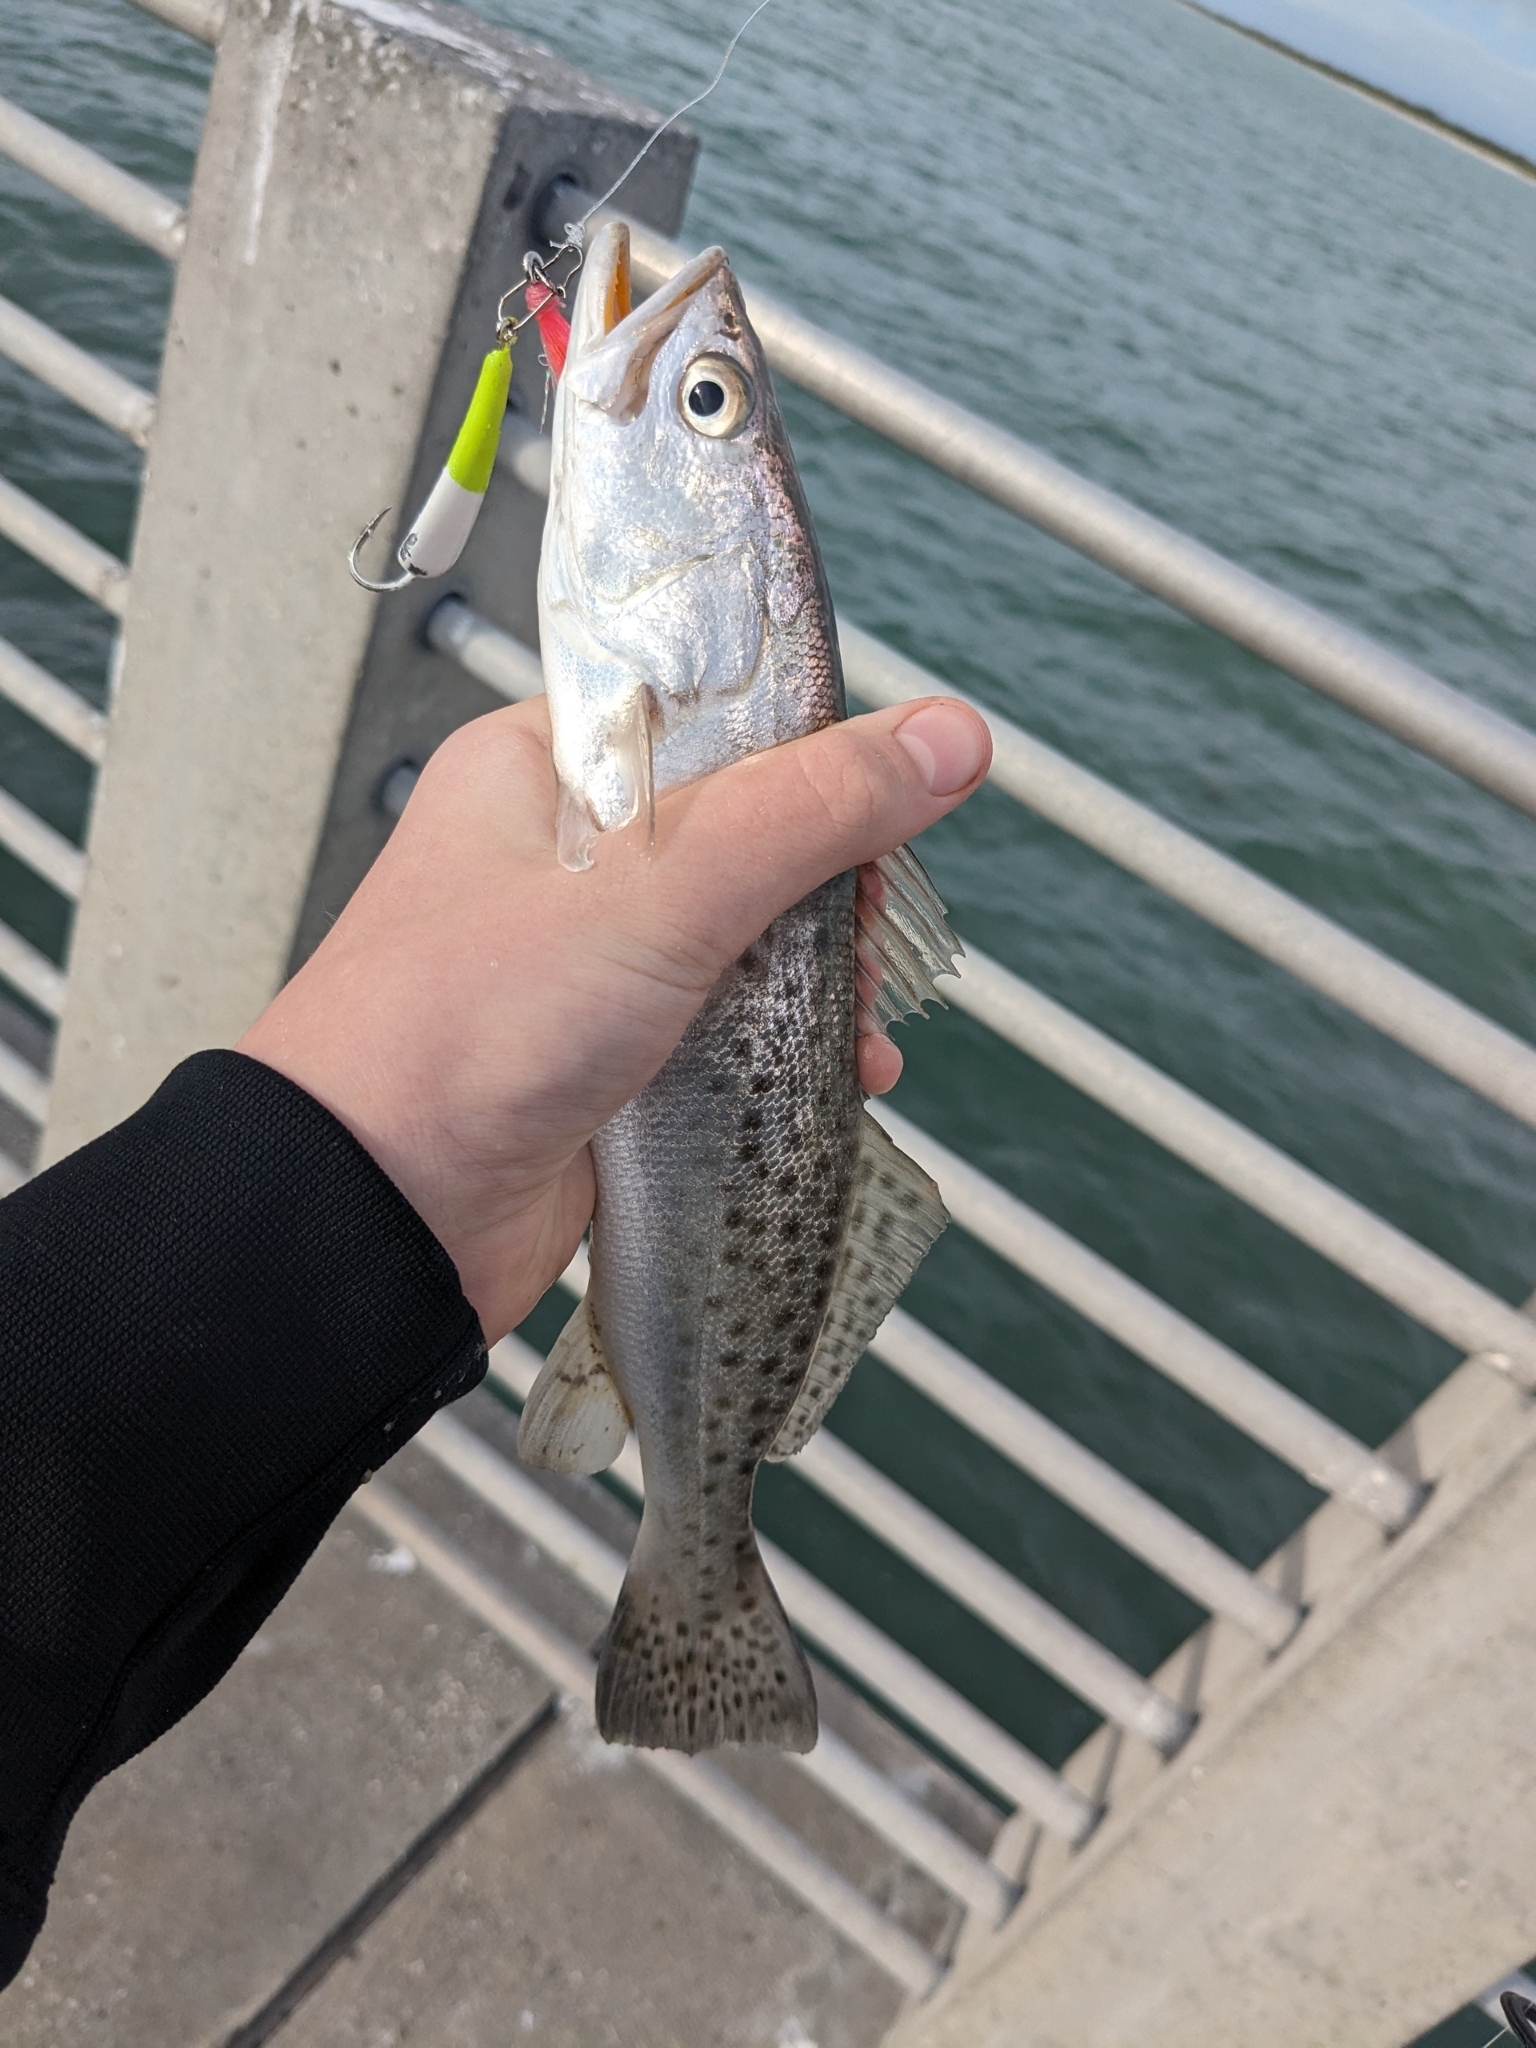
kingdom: Animalia
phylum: Chordata
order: Perciformes
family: Sciaenidae
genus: Cynoscion
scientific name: Cynoscion nebulosus
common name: Spotted seatrout
